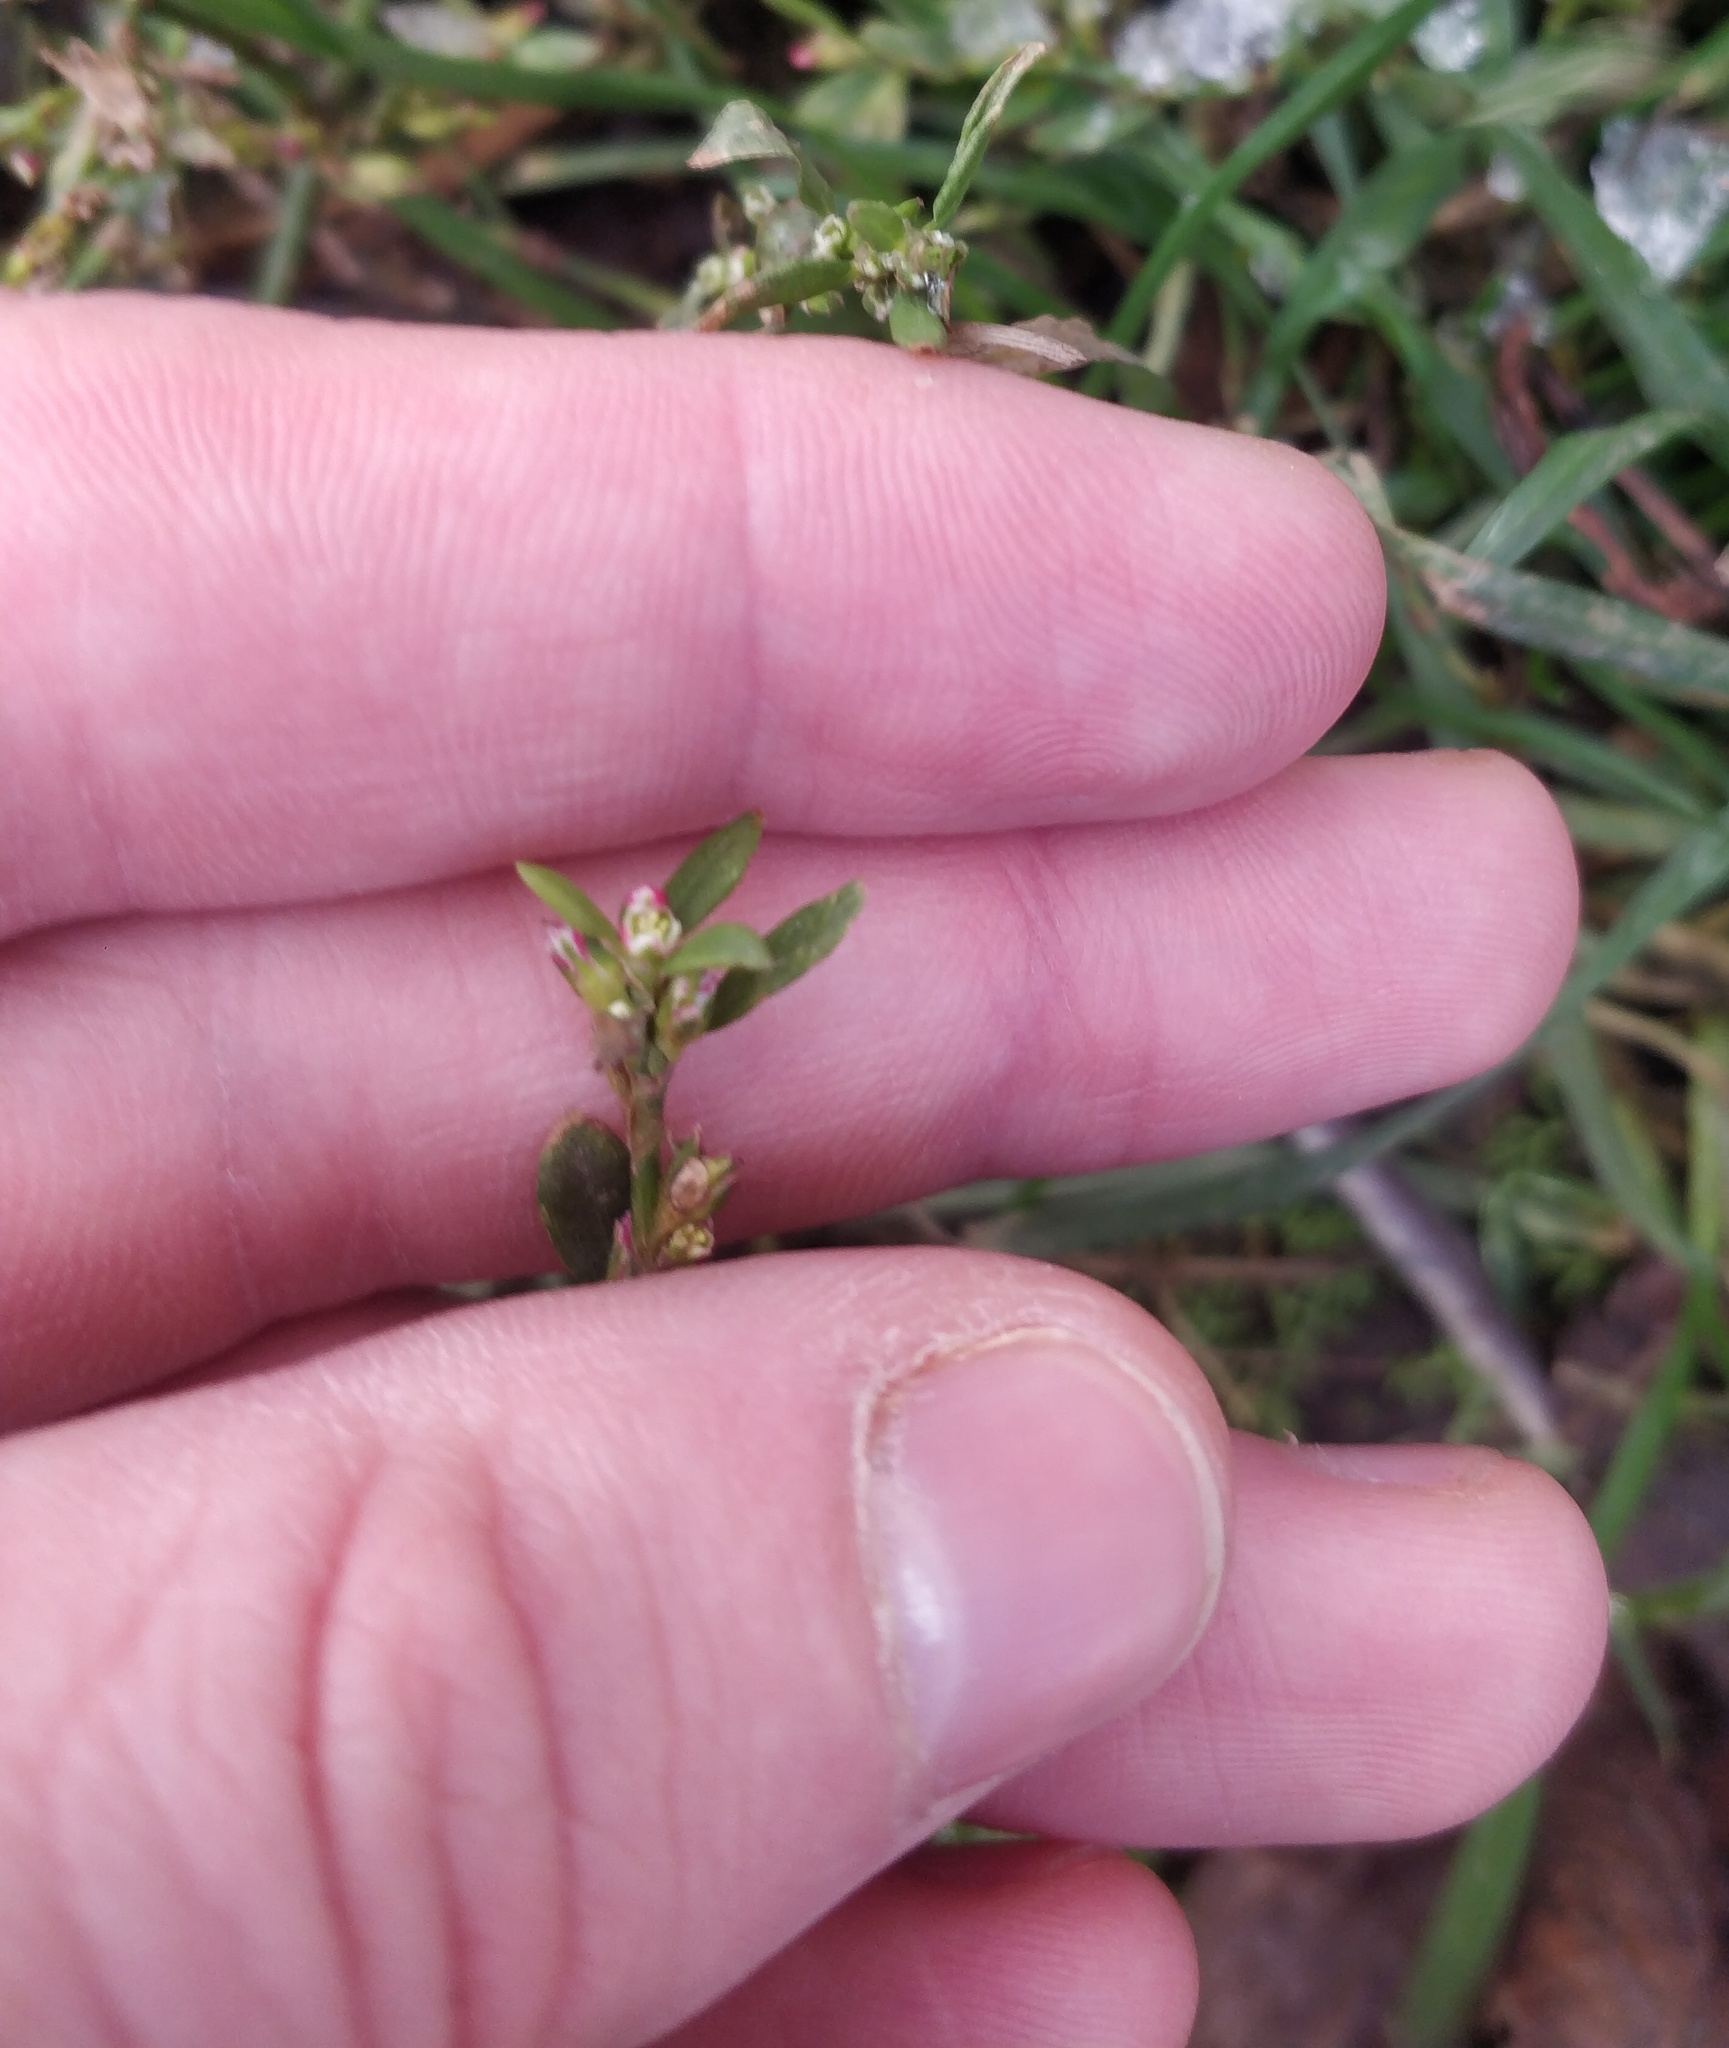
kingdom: Plantae
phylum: Tracheophyta
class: Magnoliopsida
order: Caryophyllales
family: Polygonaceae
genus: Polygonum
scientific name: Polygonum
